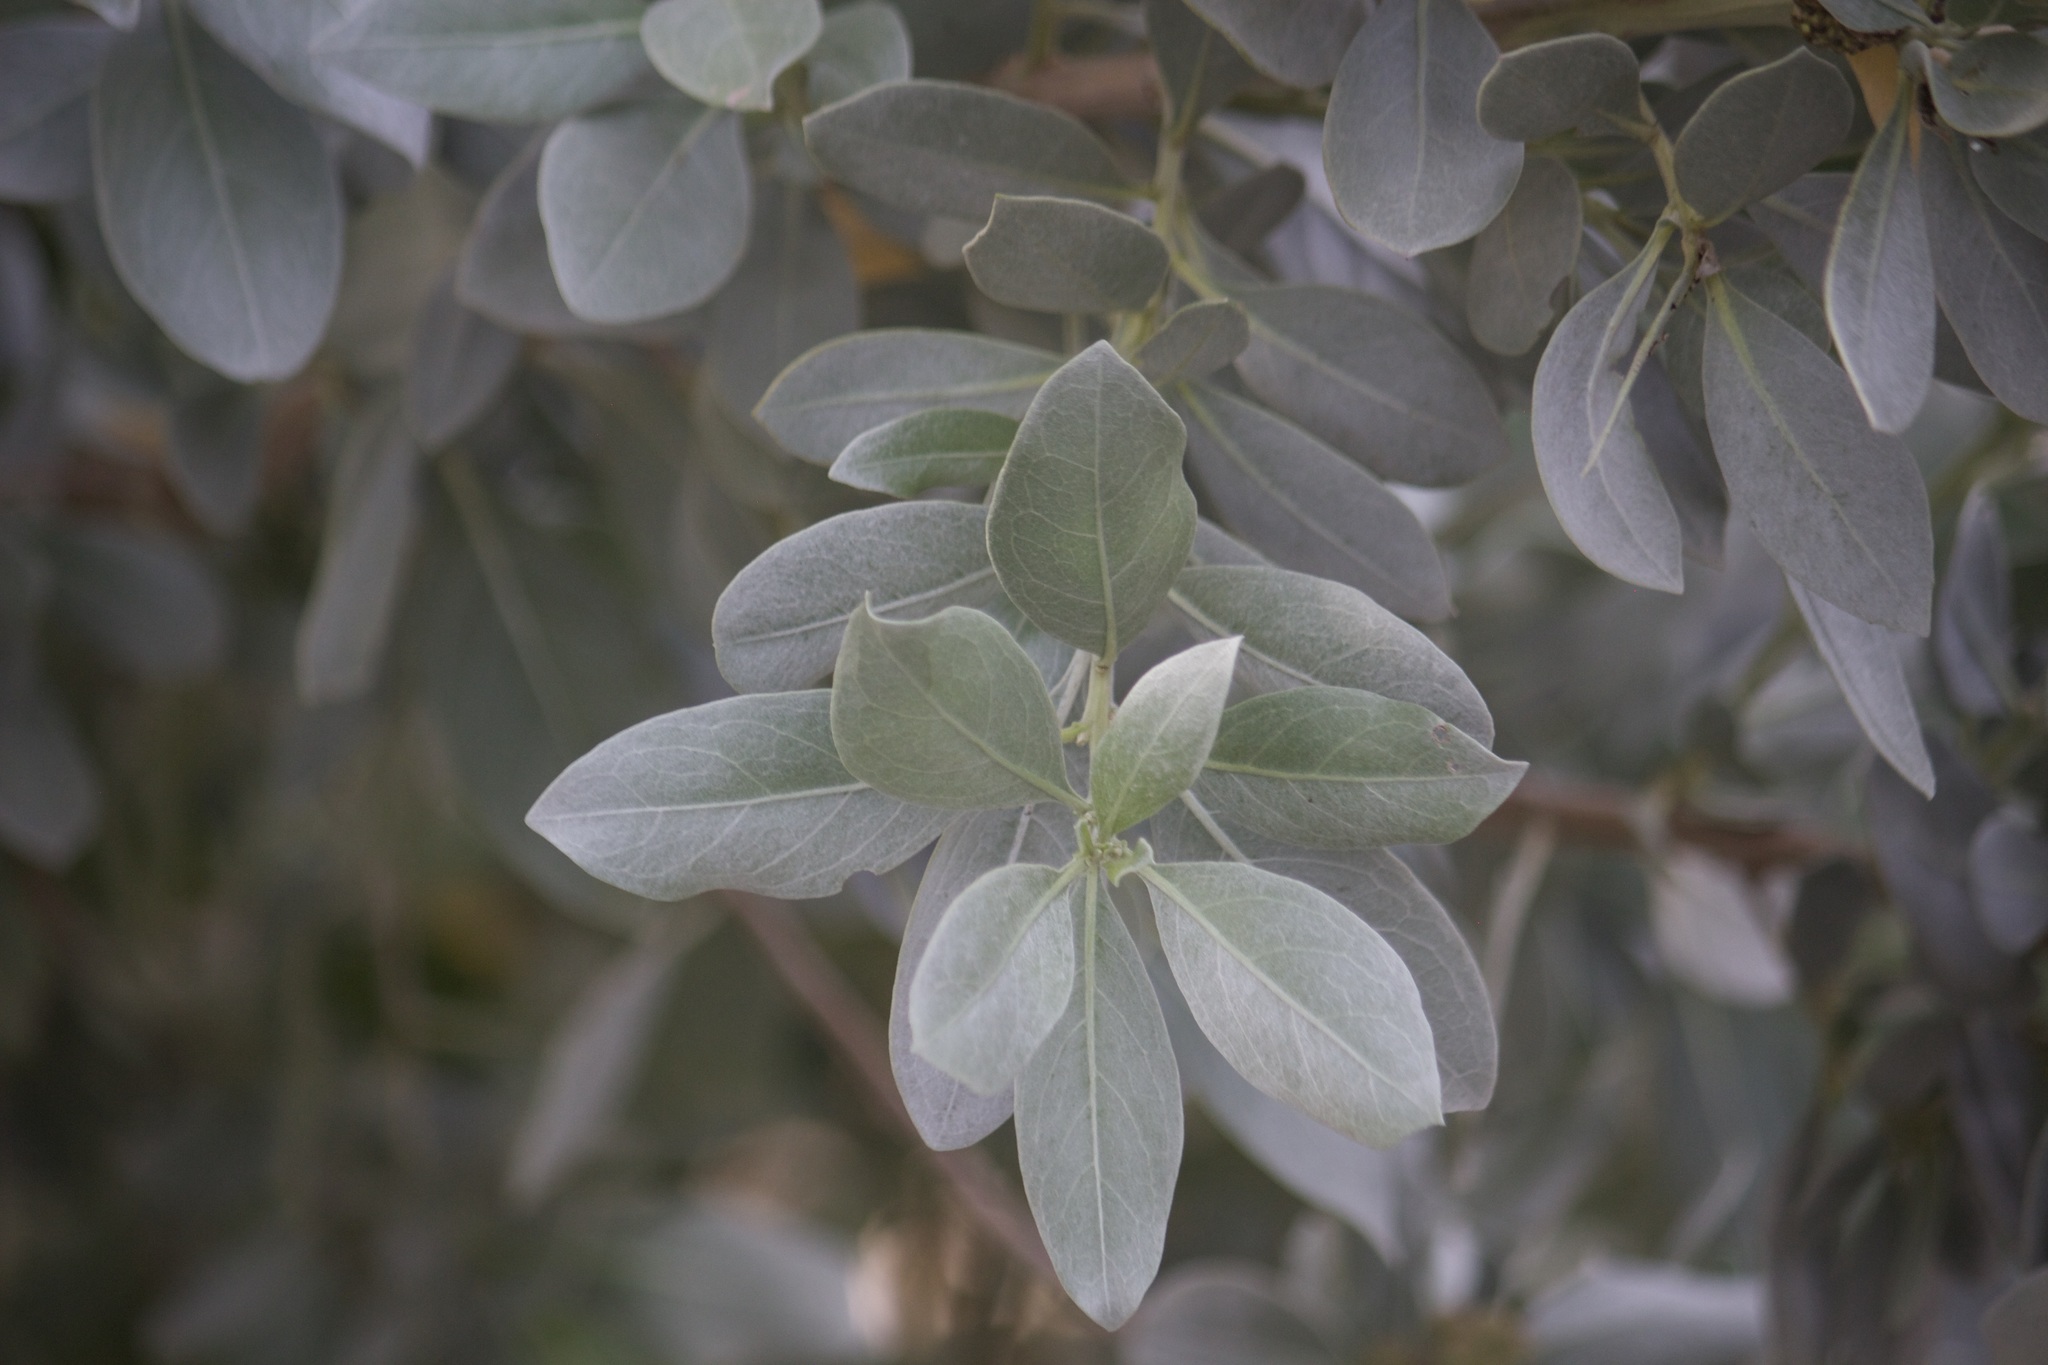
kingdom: Plantae
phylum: Tracheophyta
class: Magnoliopsida
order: Myrtales
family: Combretaceae
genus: Conocarpus
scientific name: Conocarpus erectus
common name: Button mangrove
